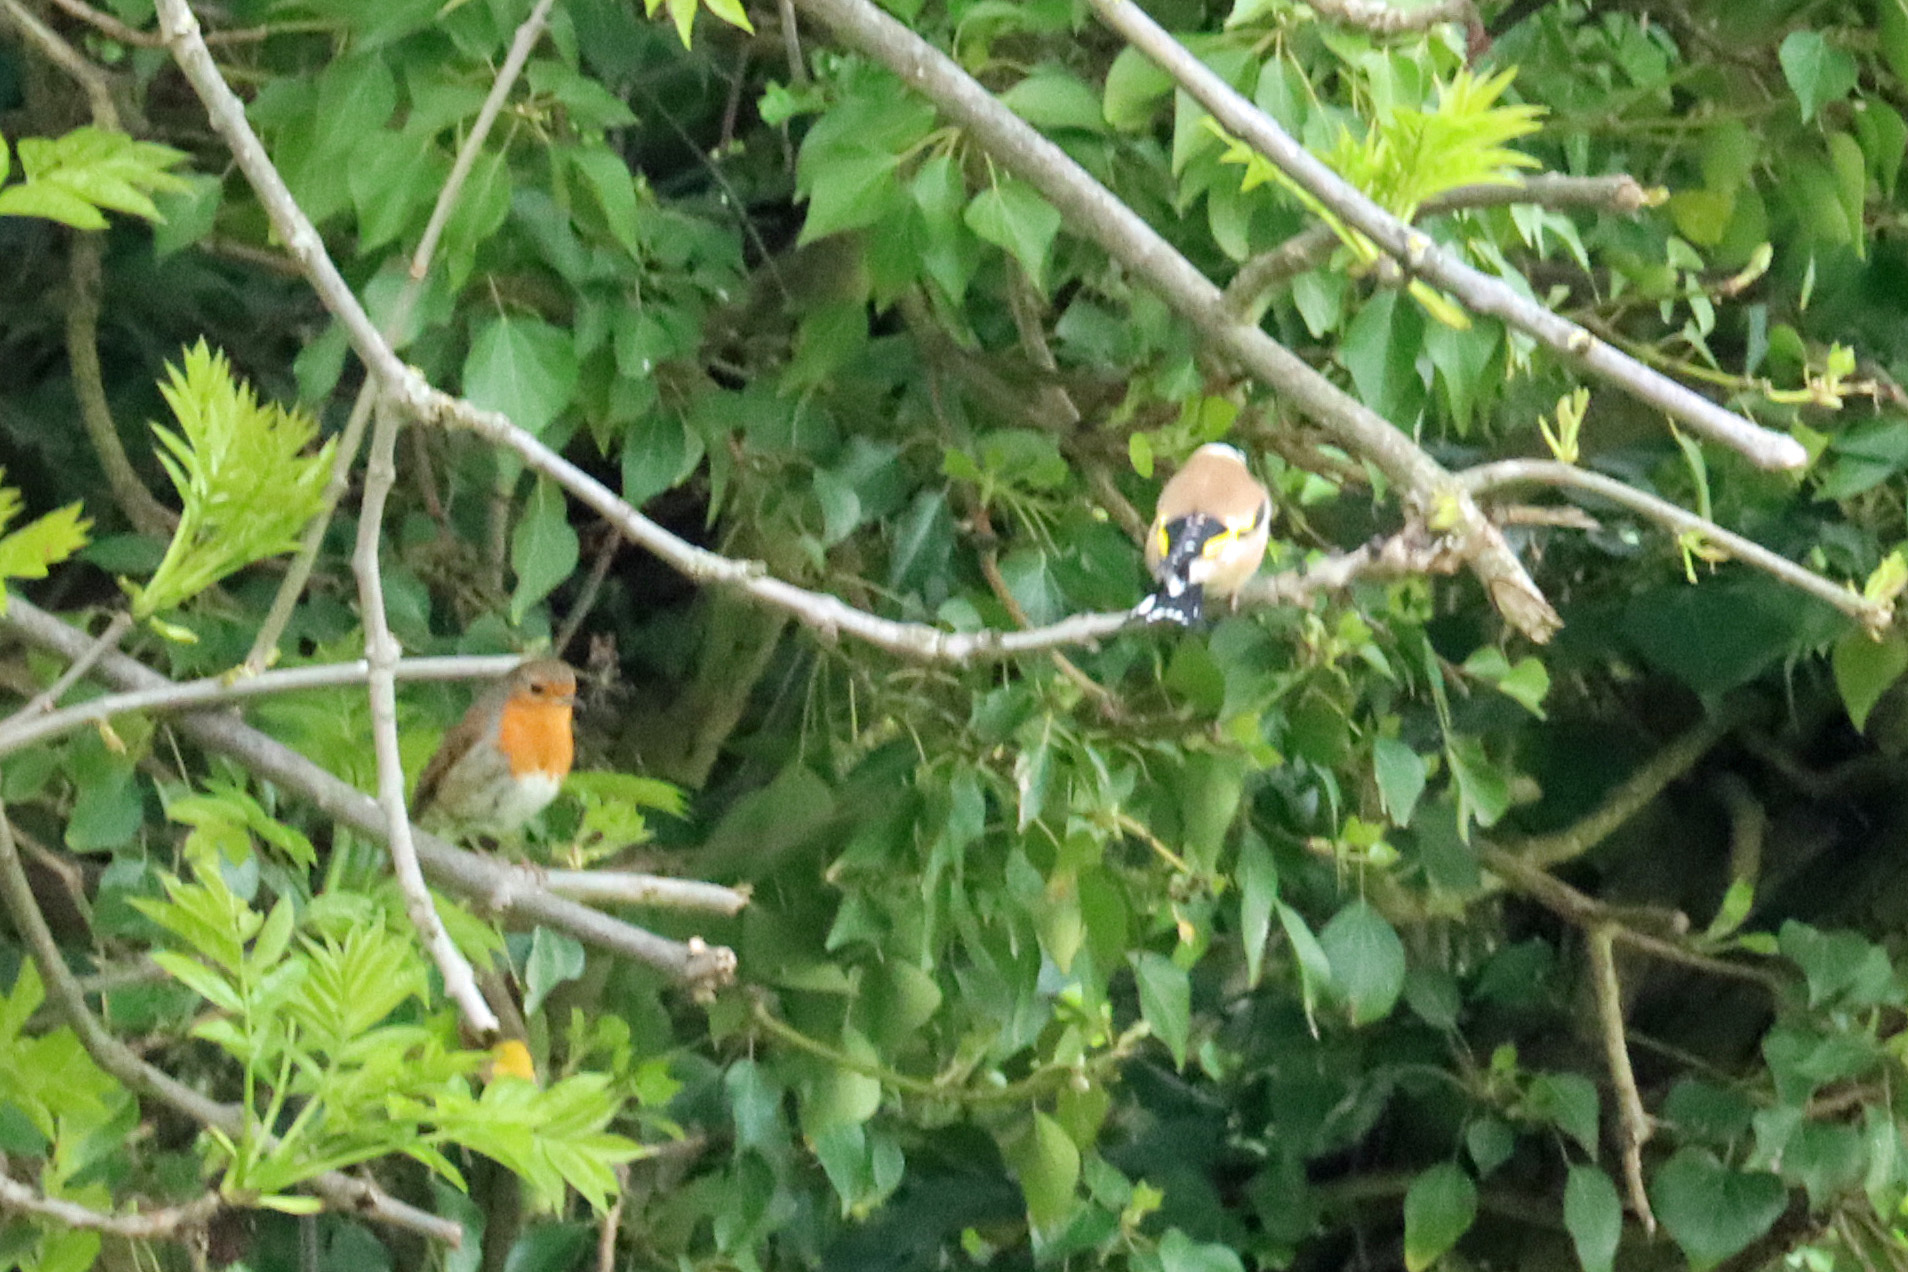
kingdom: Animalia
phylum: Chordata
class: Aves
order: Passeriformes
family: Fringillidae
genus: Carduelis
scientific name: Carduelis carduelis
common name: European goldfinch
